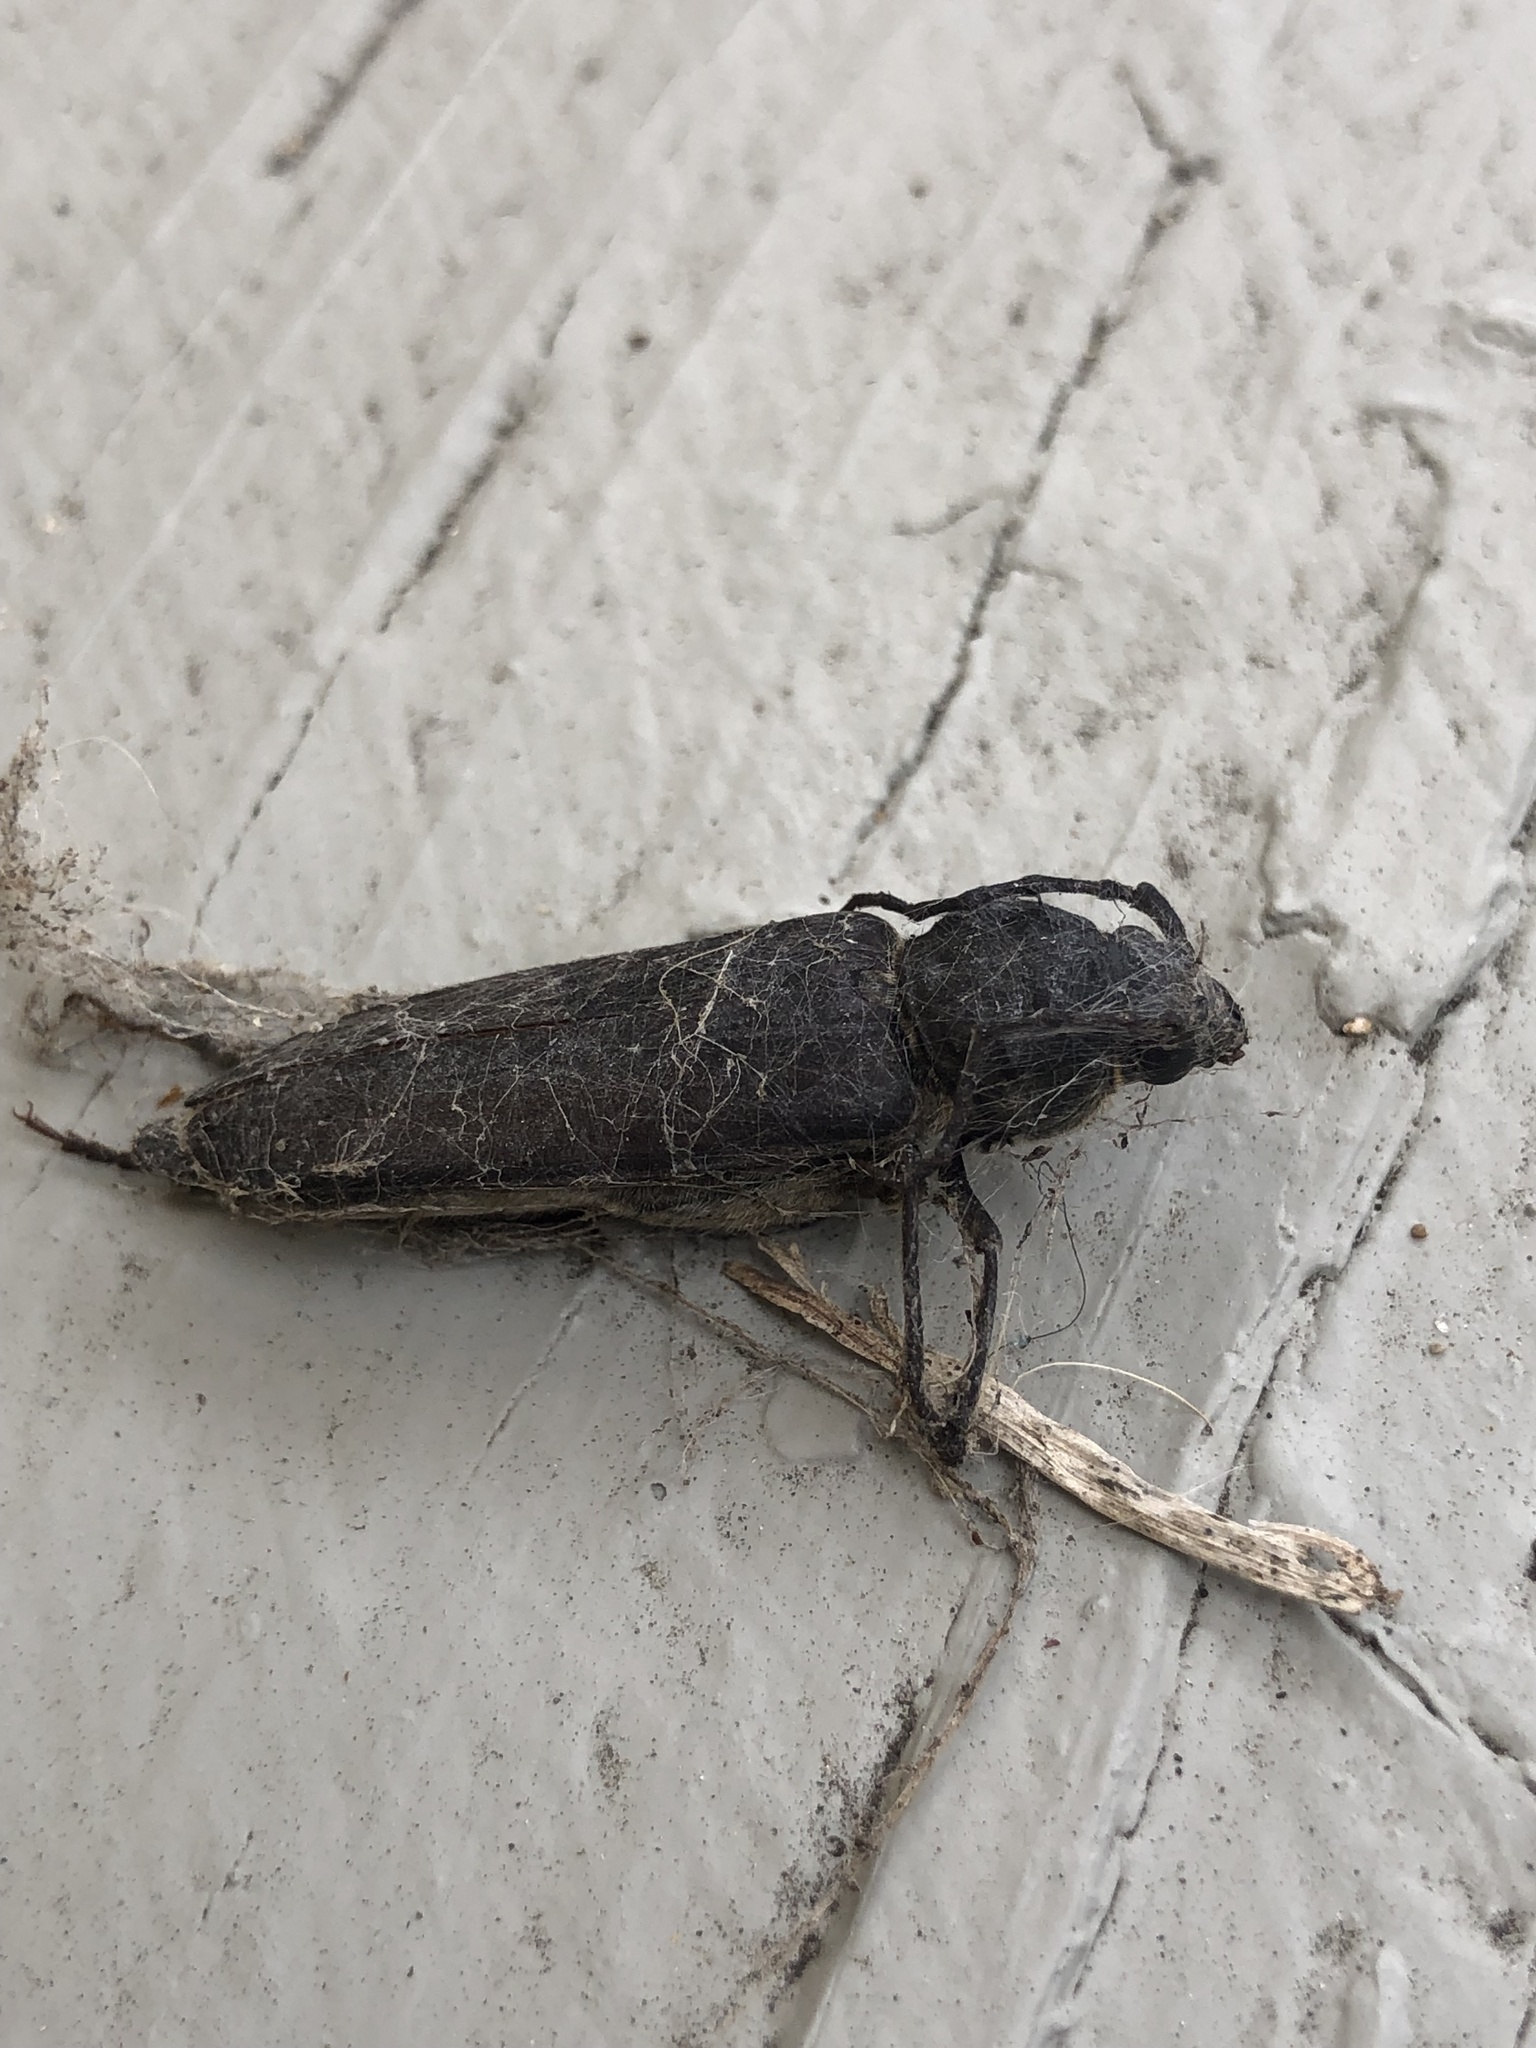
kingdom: Animalia
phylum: Arthropoda
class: Insecta
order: Coleoptera
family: Cerambycidae
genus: Arhopalus
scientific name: Arhopalus asperatus
